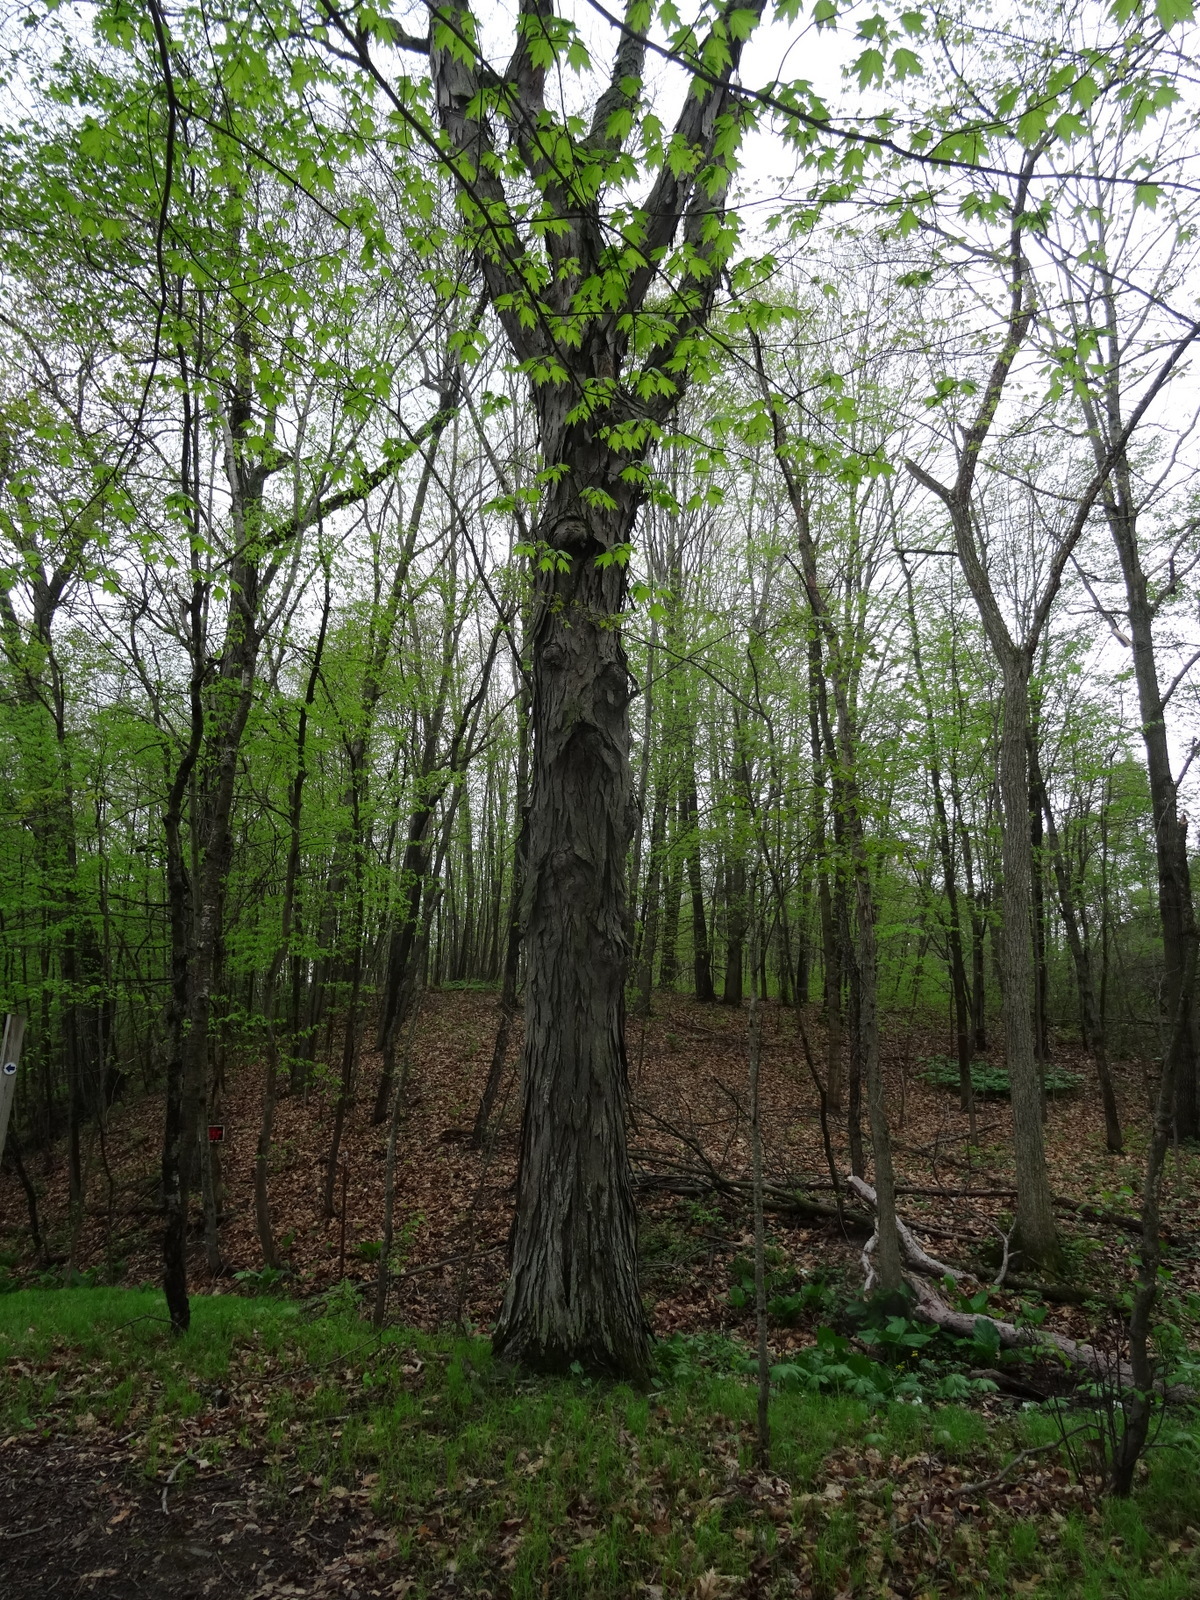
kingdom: Plantae
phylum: Tracheophyta
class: Magnoliopsida
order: Fagales
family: Juglandaceae
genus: Carya
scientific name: Carya ovata
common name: Shagbark hickory
